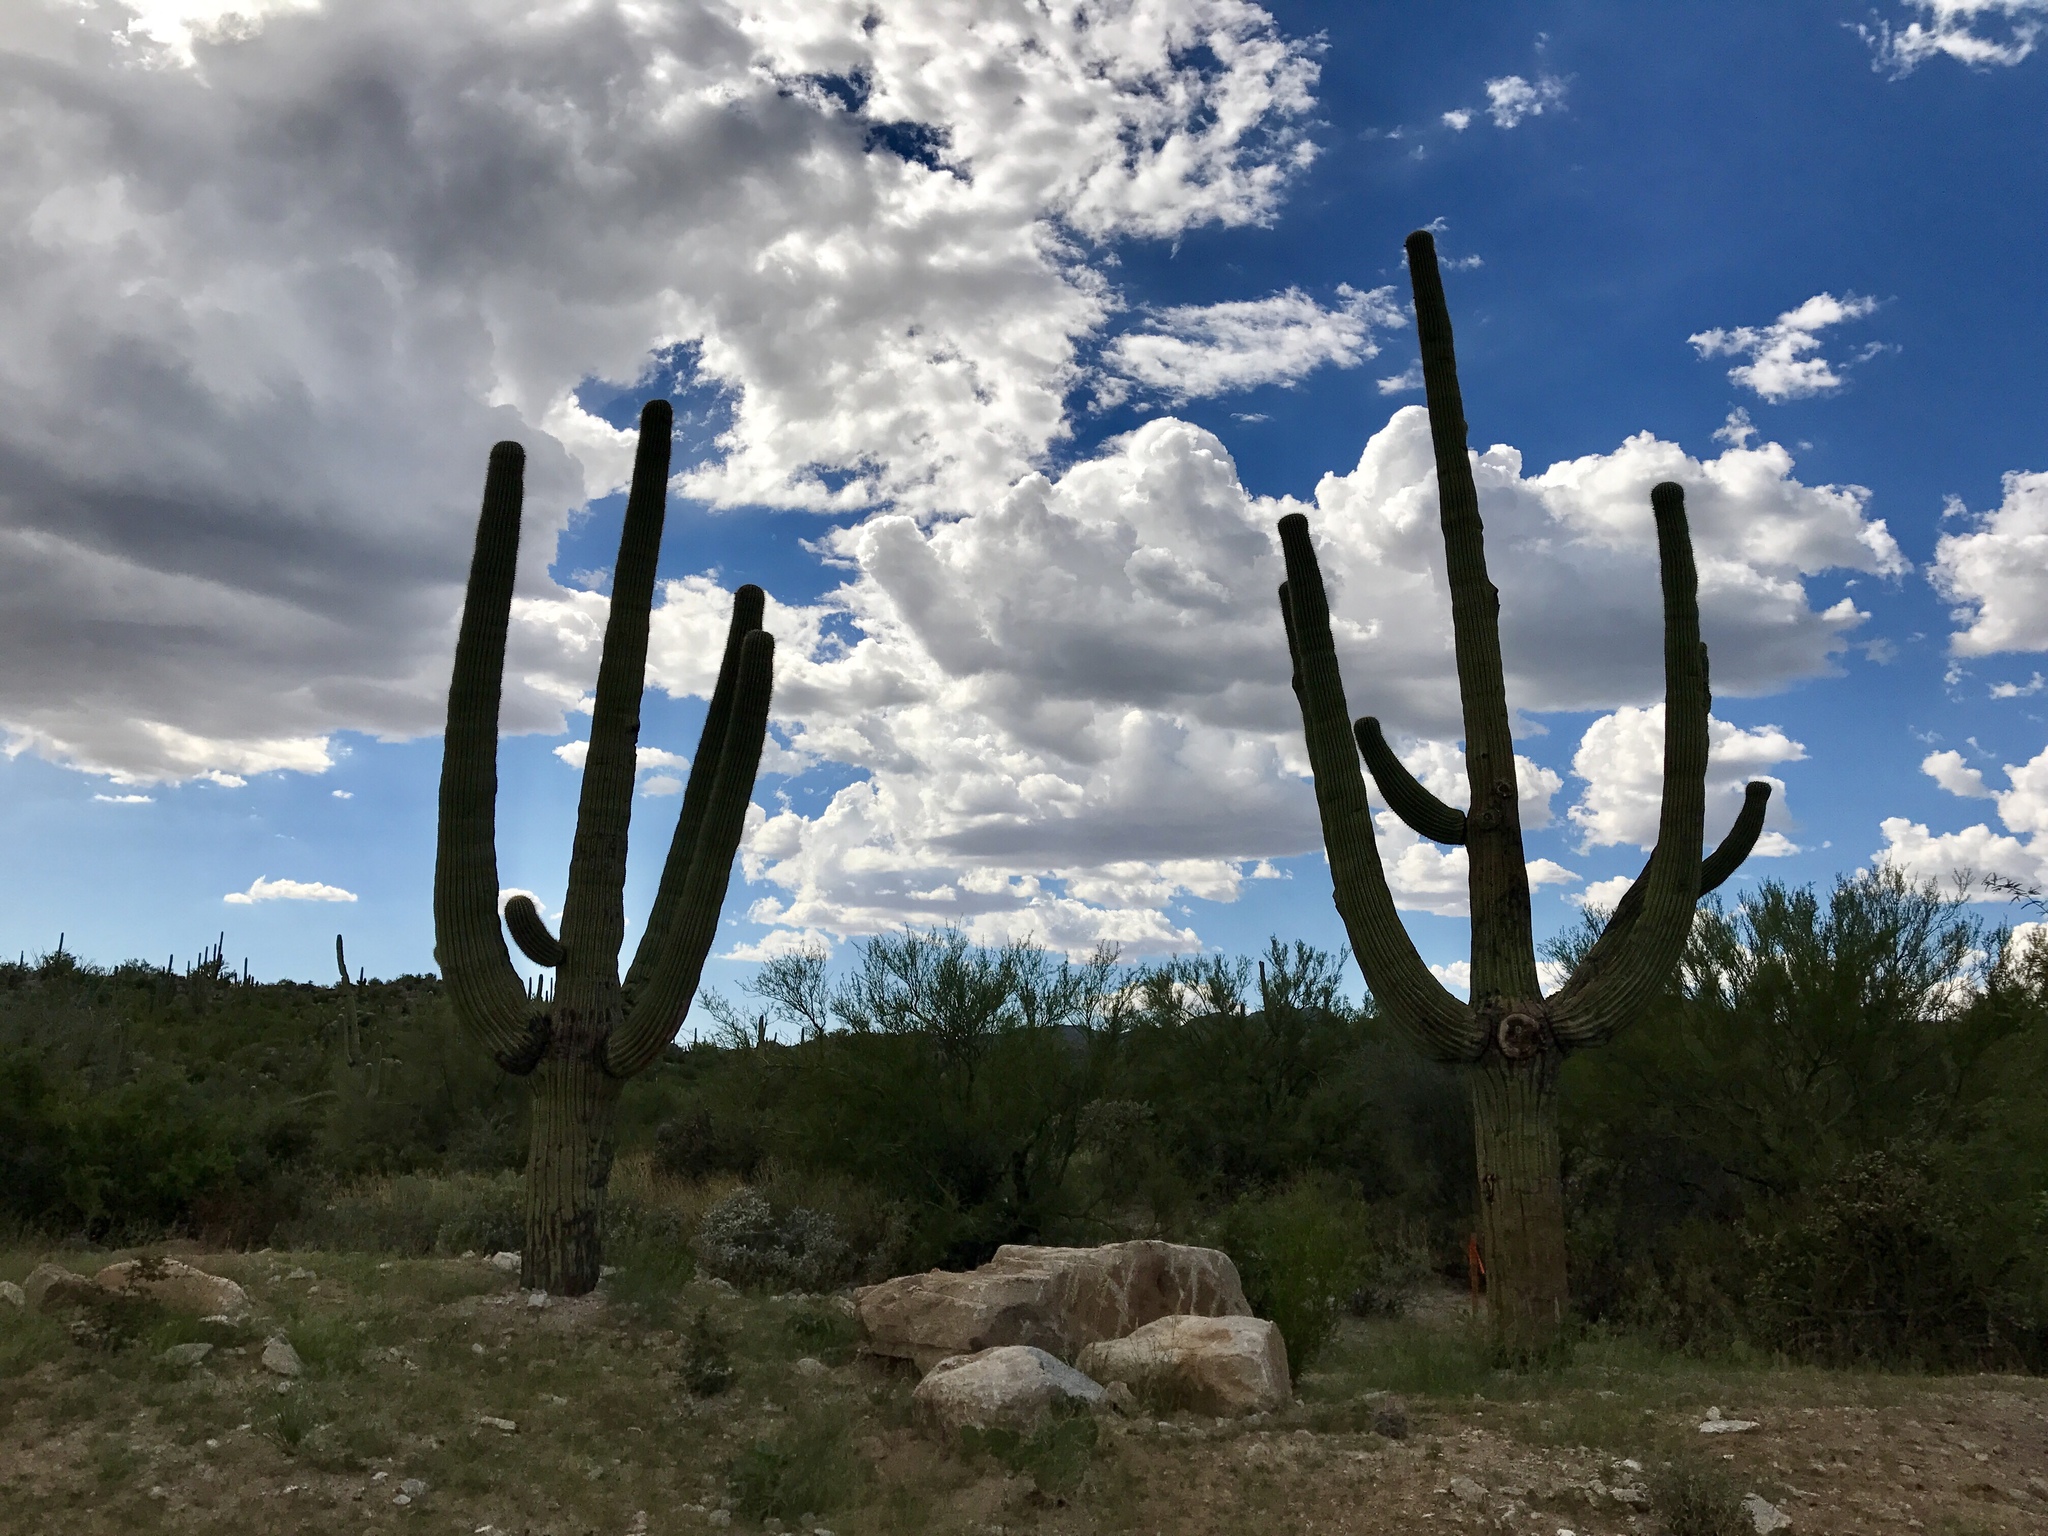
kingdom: Plantae
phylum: Tracheophyta
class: Magnoliopsida
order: Caryophyllales
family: Cactaceae
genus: Carnegiea
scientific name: Carnegiea gigantea
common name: Saguaro
